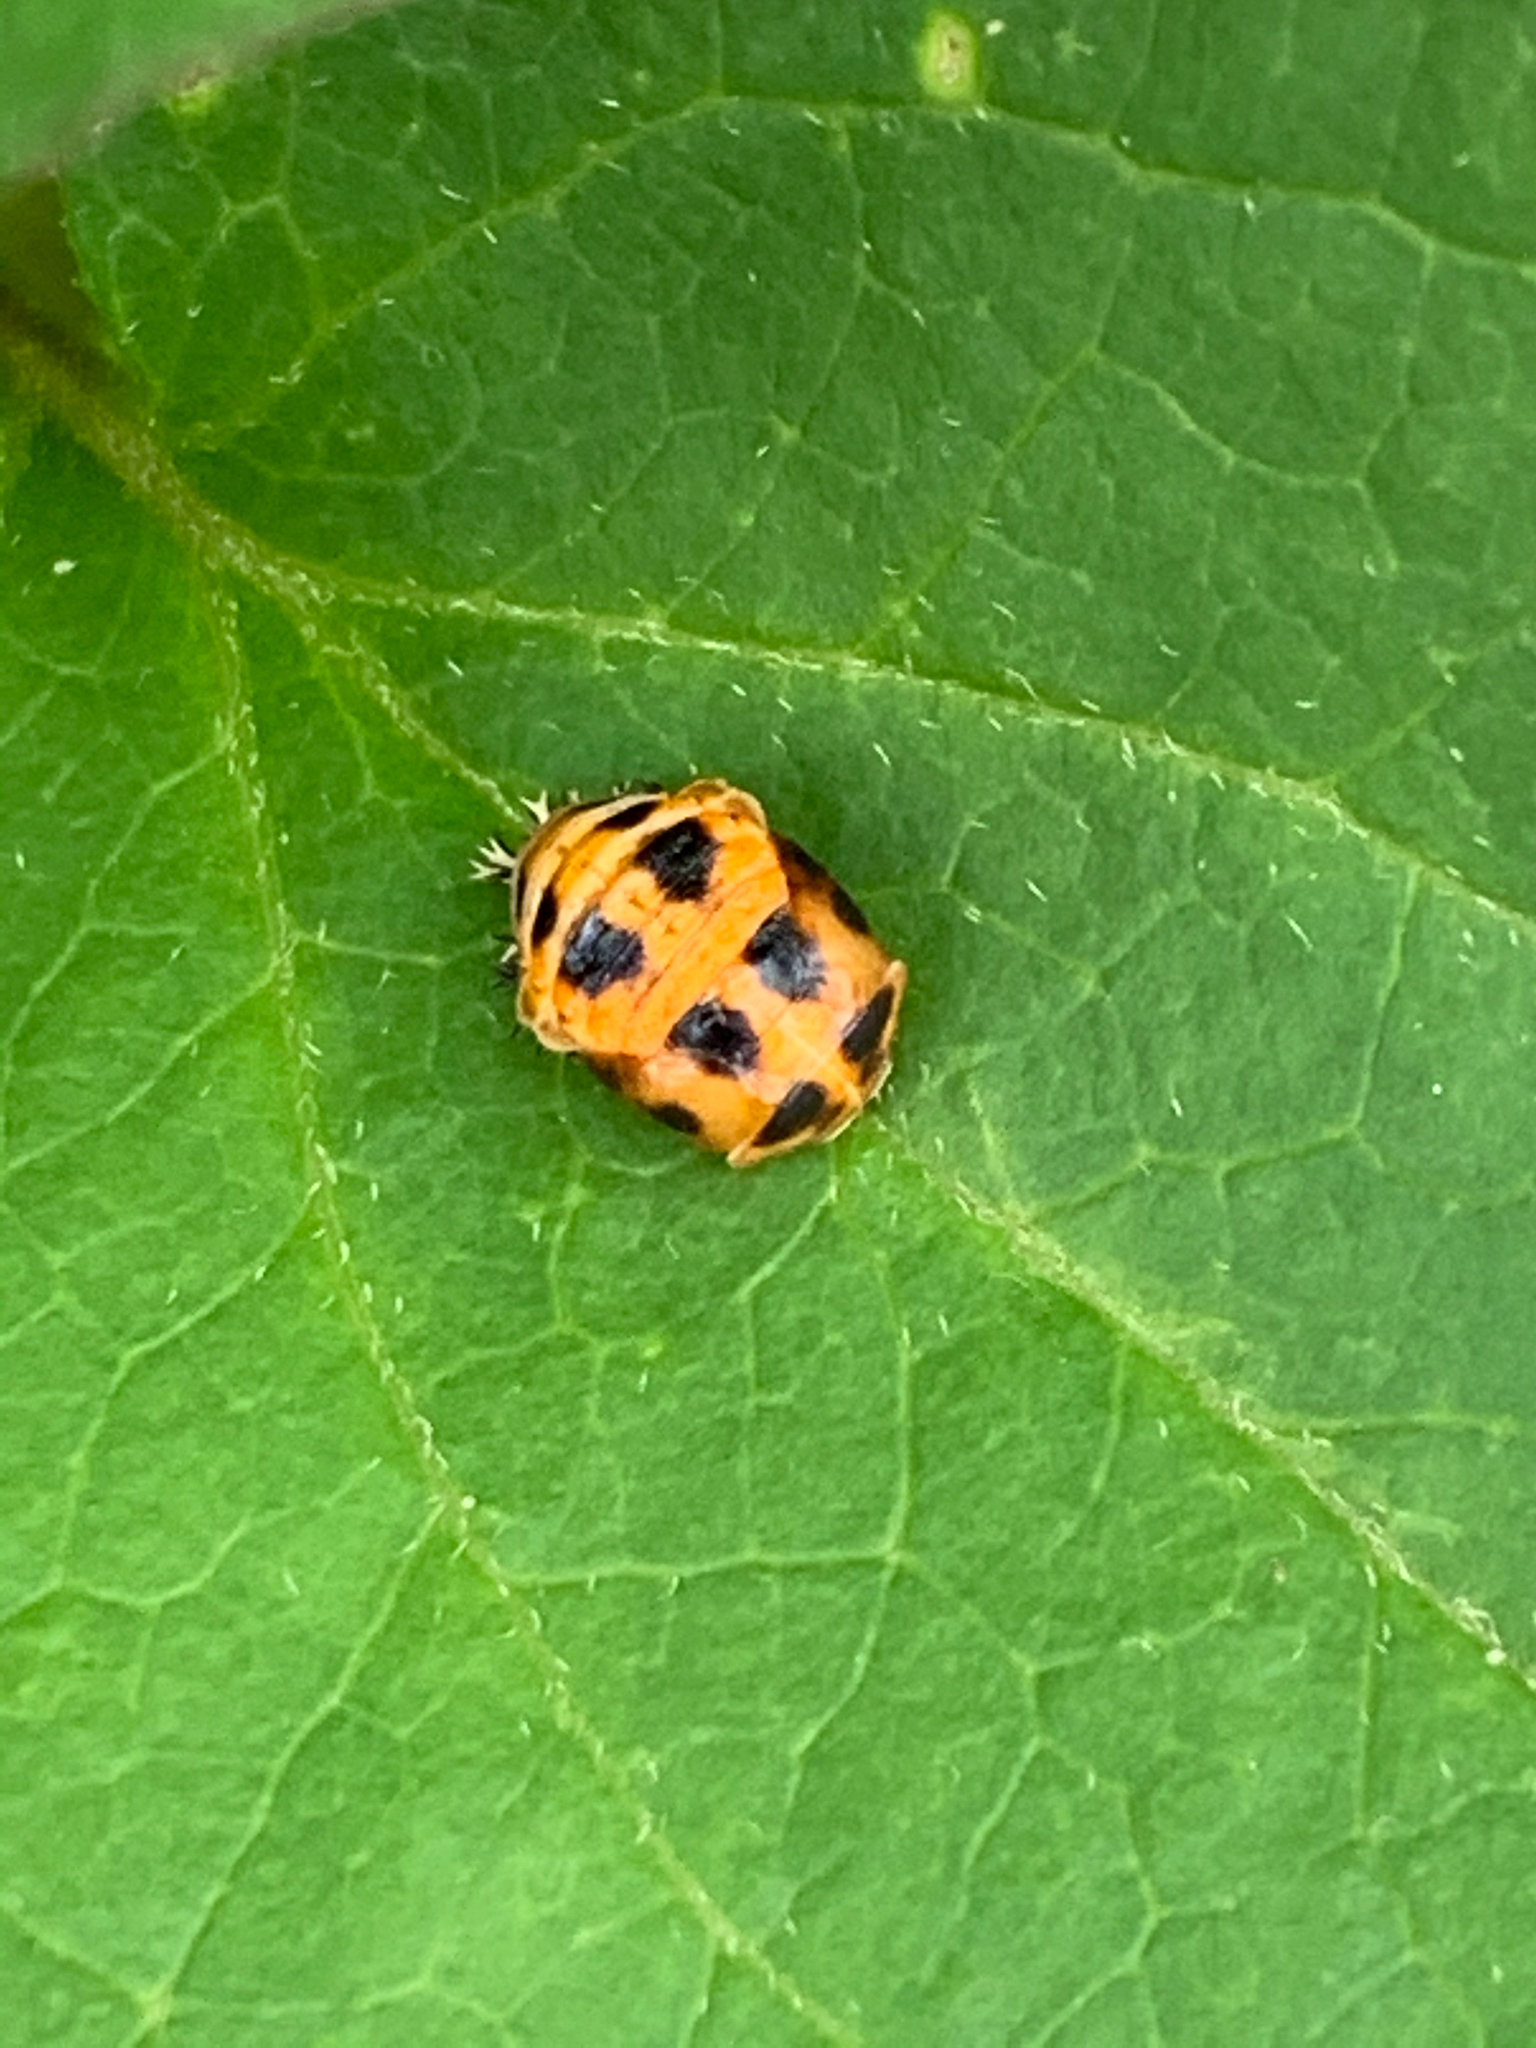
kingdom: Animalia
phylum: Arthropoda
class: Insecta
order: Coleoptera
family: Coccinellidae
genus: Harmonia
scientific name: Harmonia axyridis
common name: Harlequin ladybird
